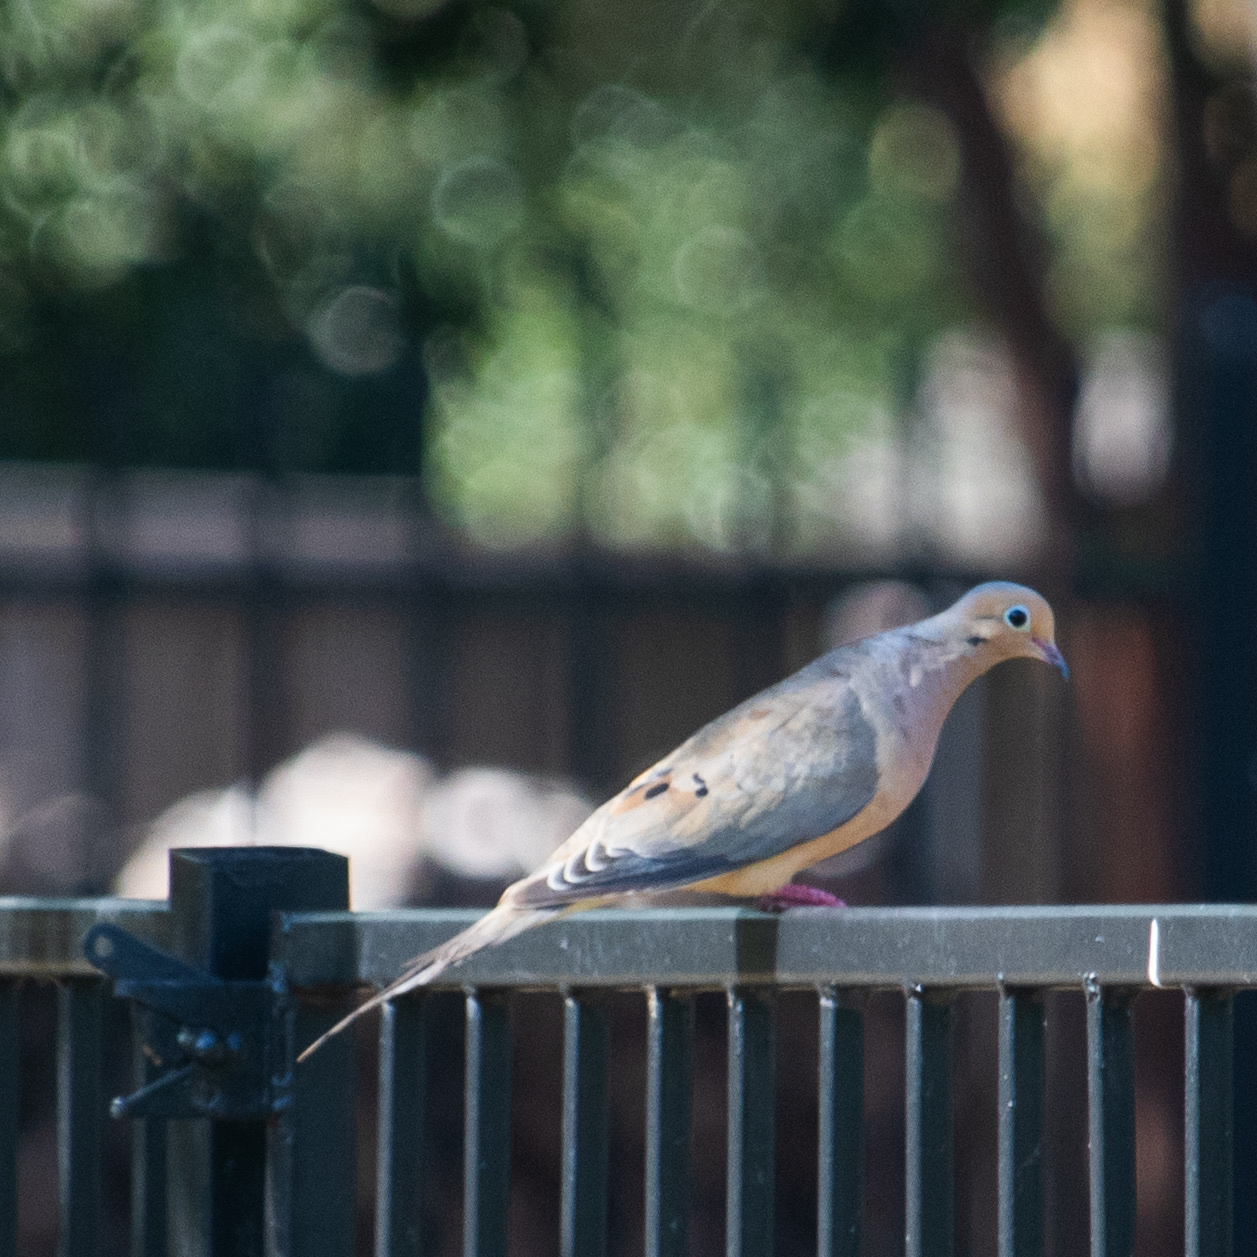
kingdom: Animalia
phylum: Chordata
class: Aves
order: Columbiformes
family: Columbidae
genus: Zenaida
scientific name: Zenaida macroura
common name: Mourning dove
